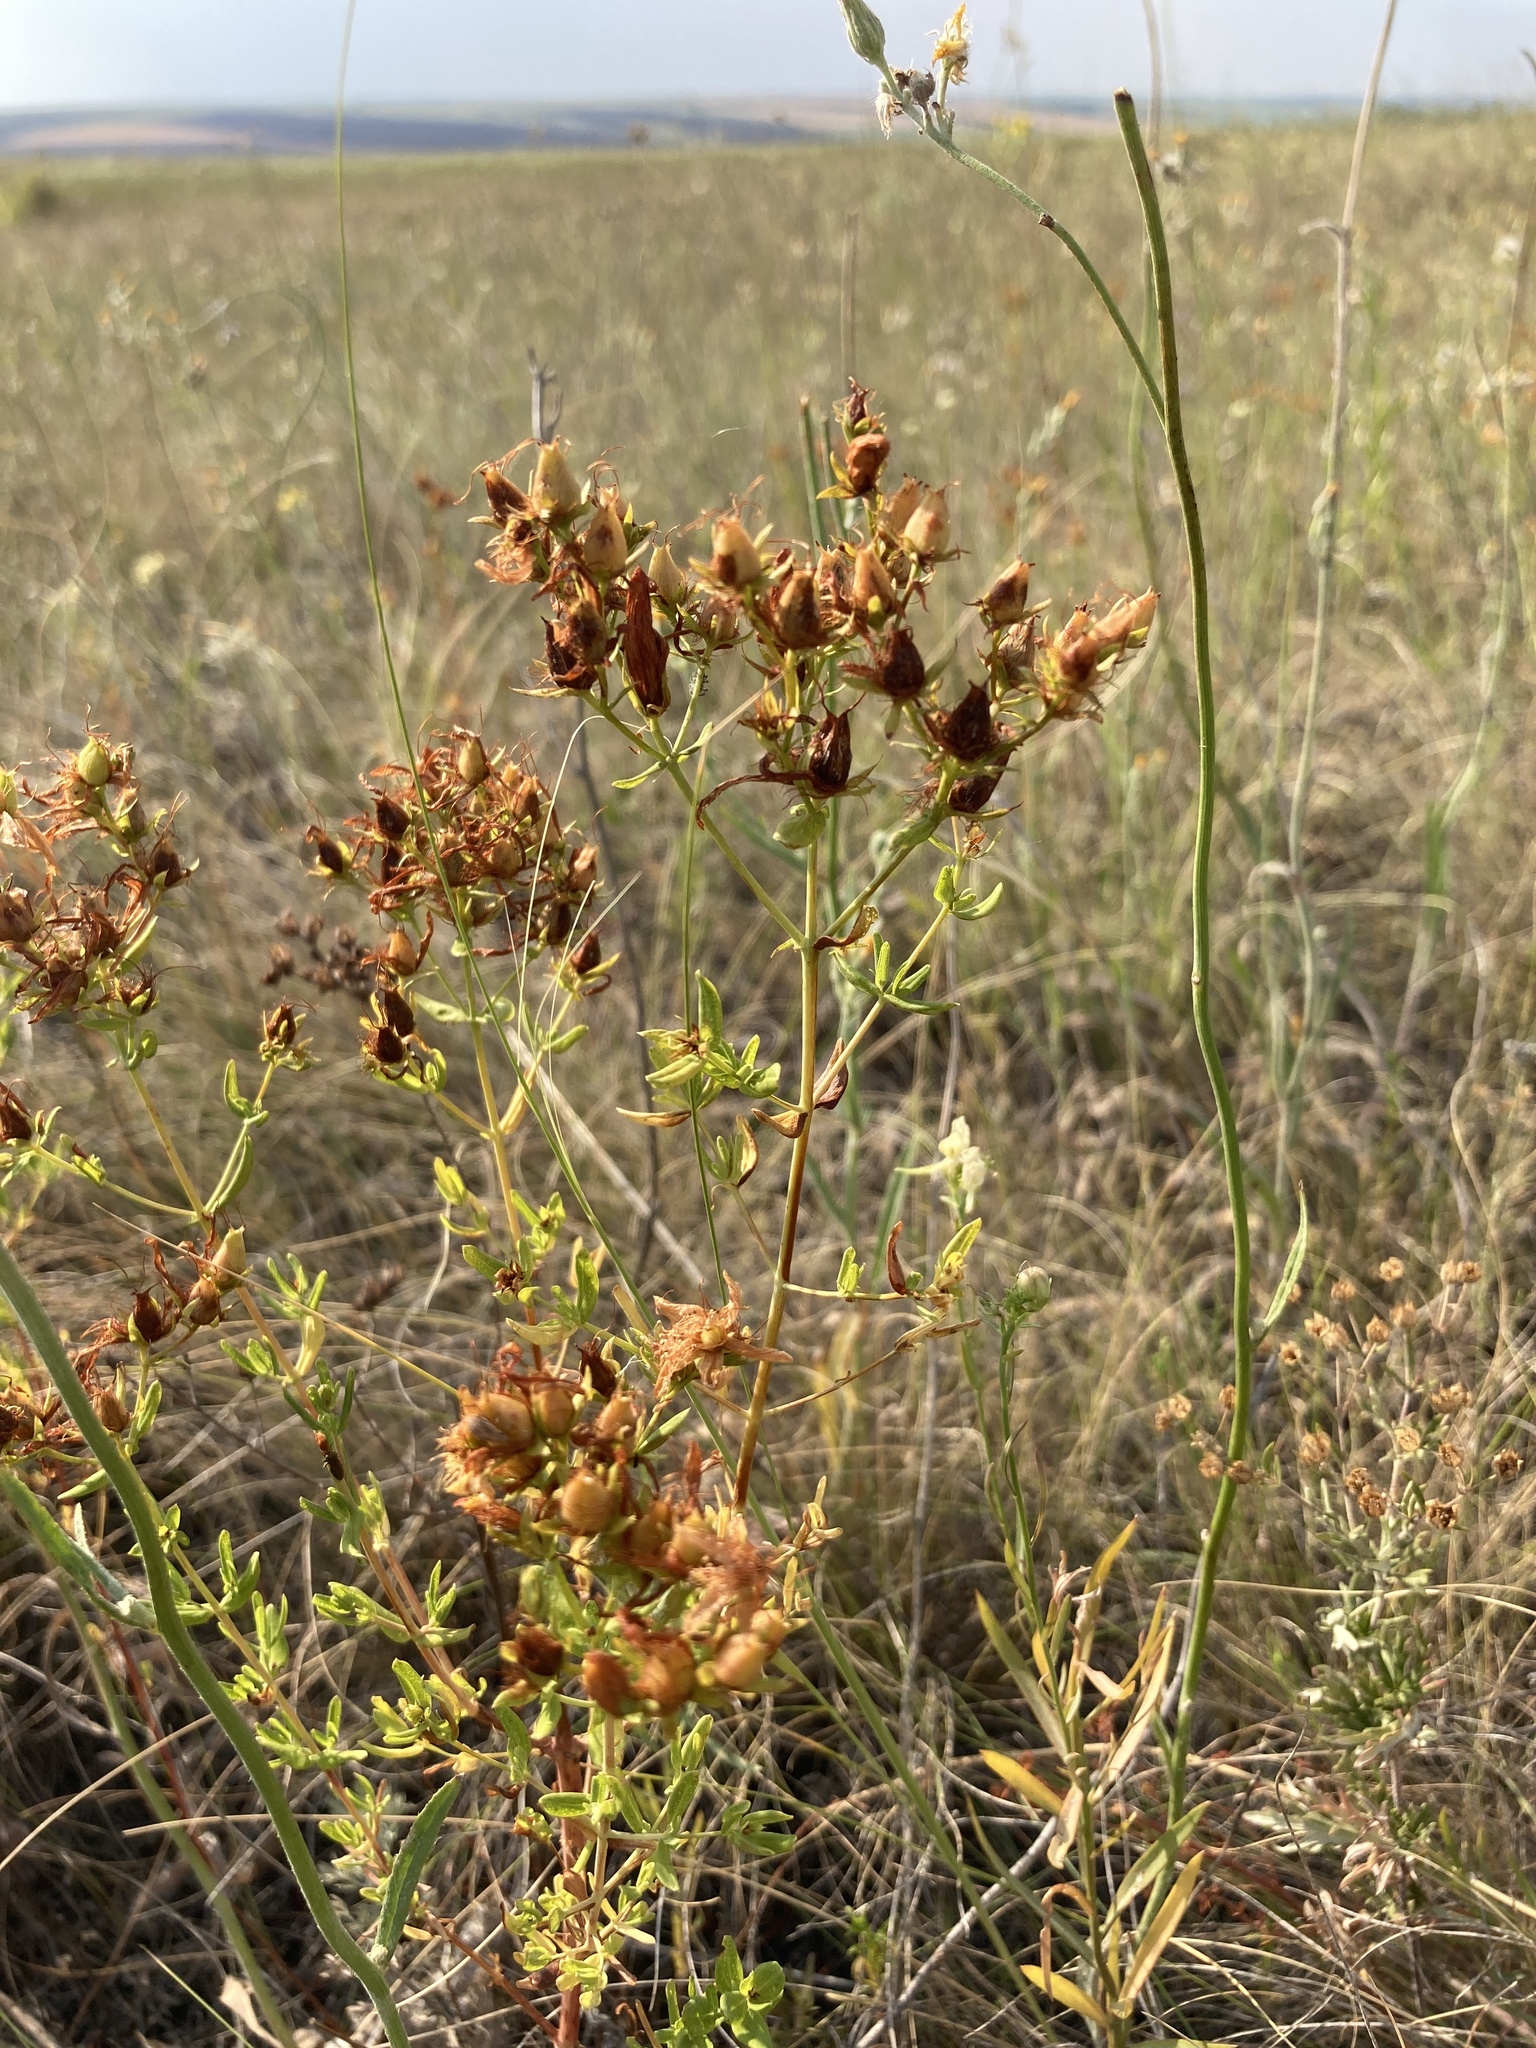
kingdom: Plantae
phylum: Tracheophyta
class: Magnoliopsida
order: Malpighiales
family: Hypericaceae
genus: Hypericum
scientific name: Hypericum perforatum
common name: Common st. johnswort
